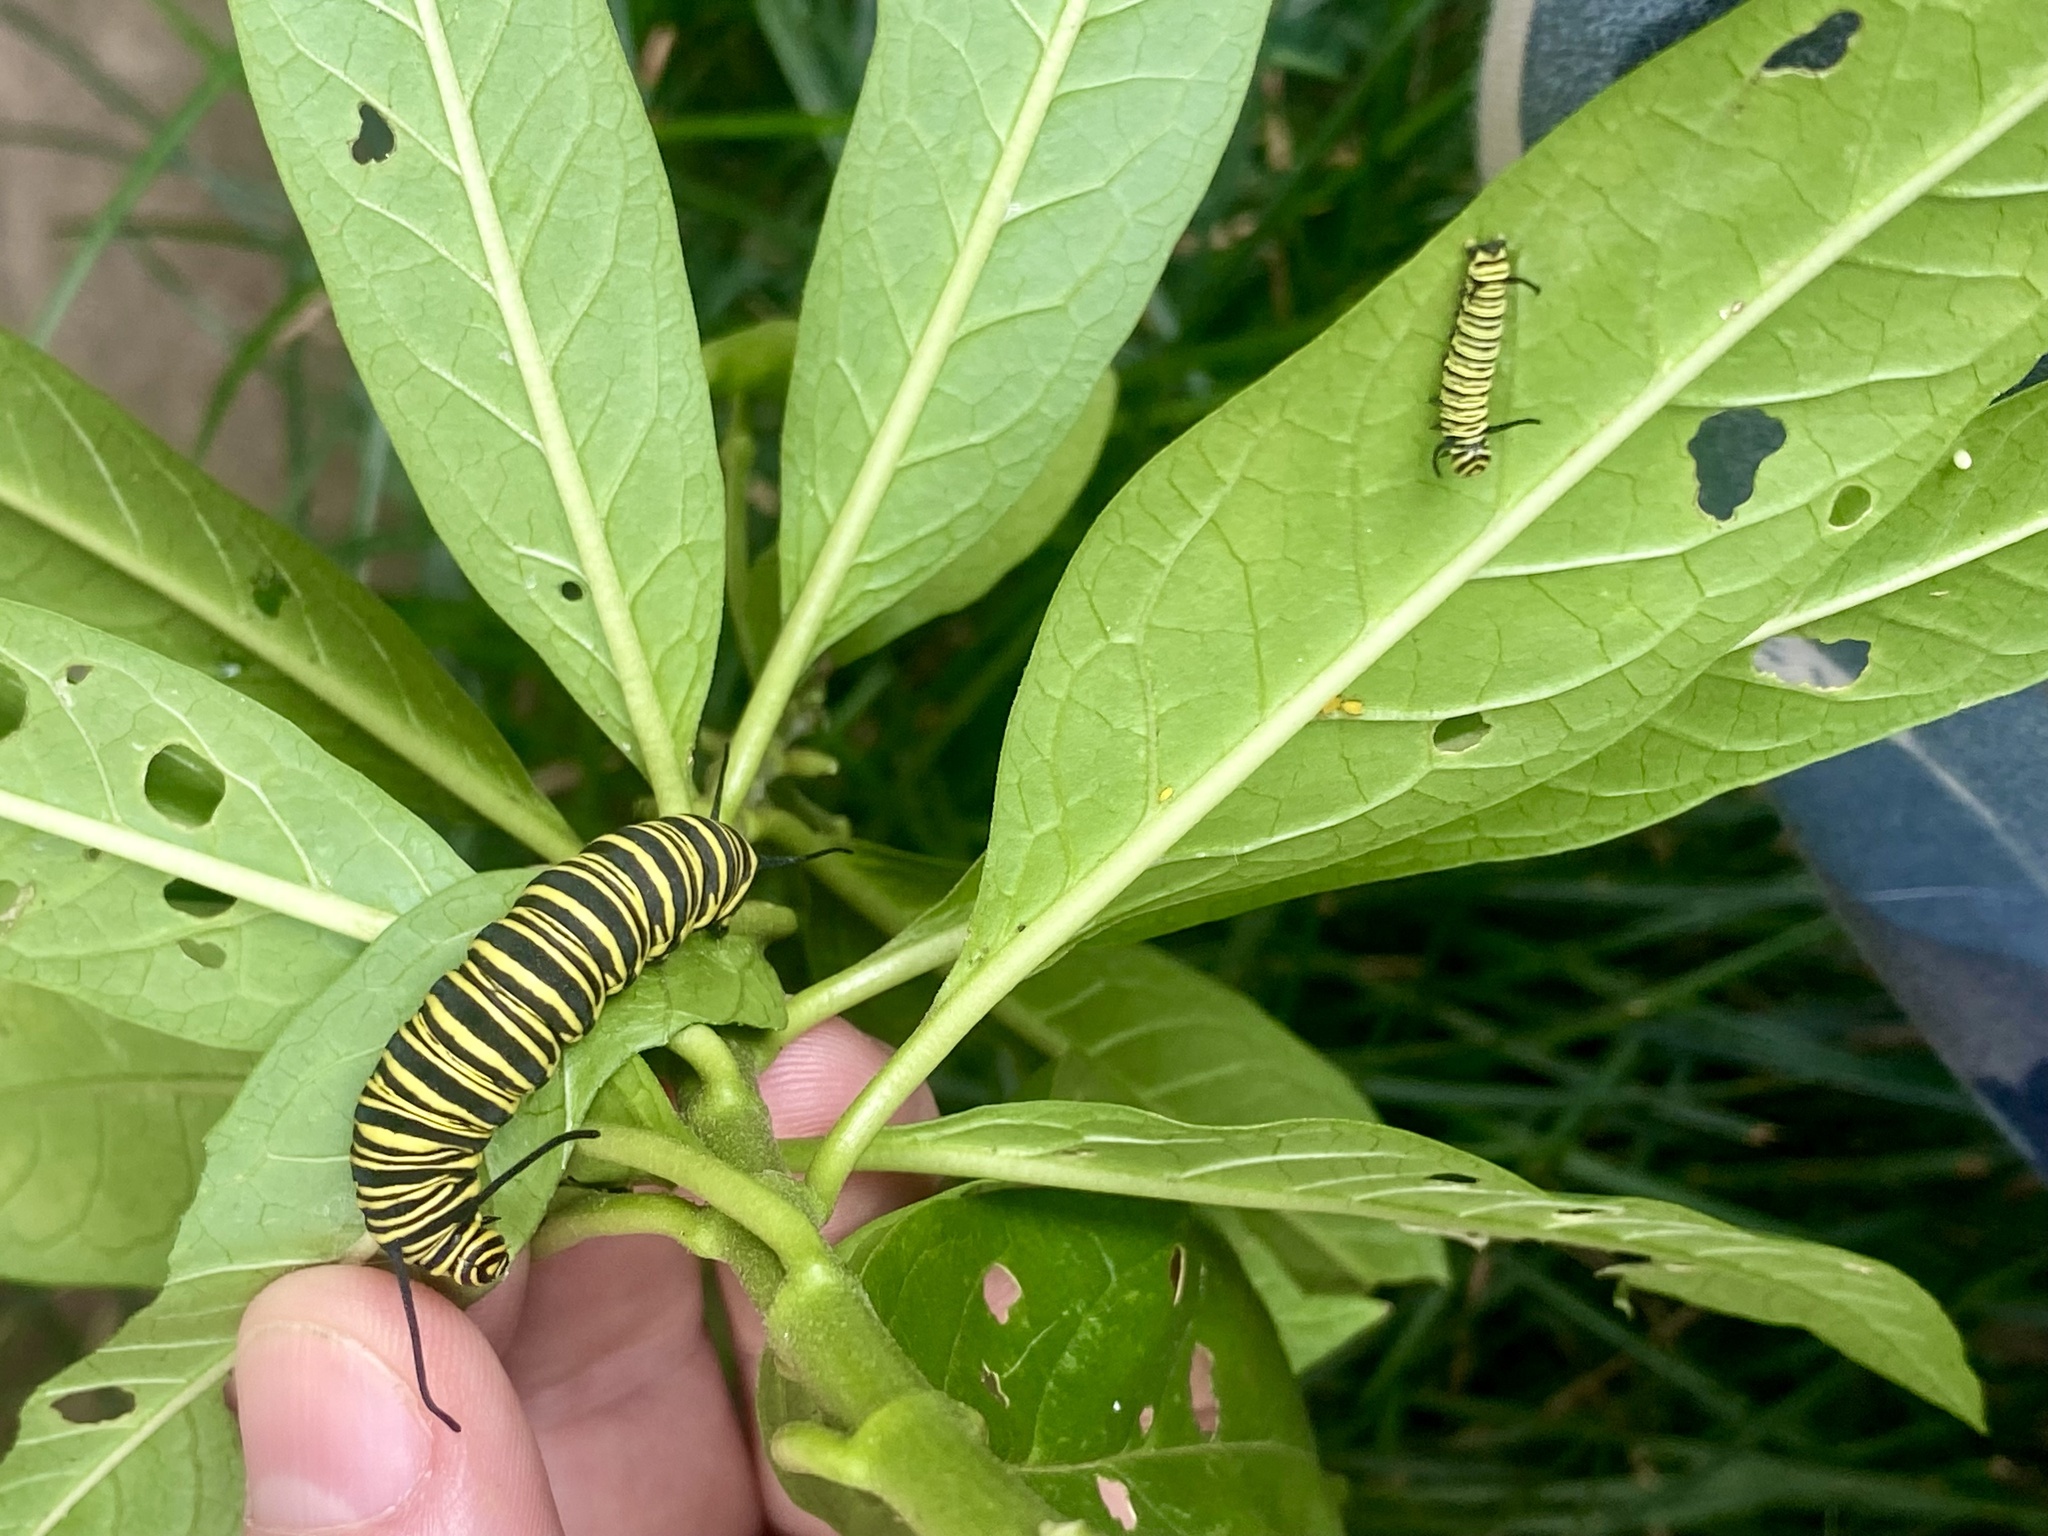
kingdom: Animalia
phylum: Arthropoda
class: Insecta
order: Lepidoptera
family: Nymphalidae
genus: Danaus
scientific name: Danaus erippus
